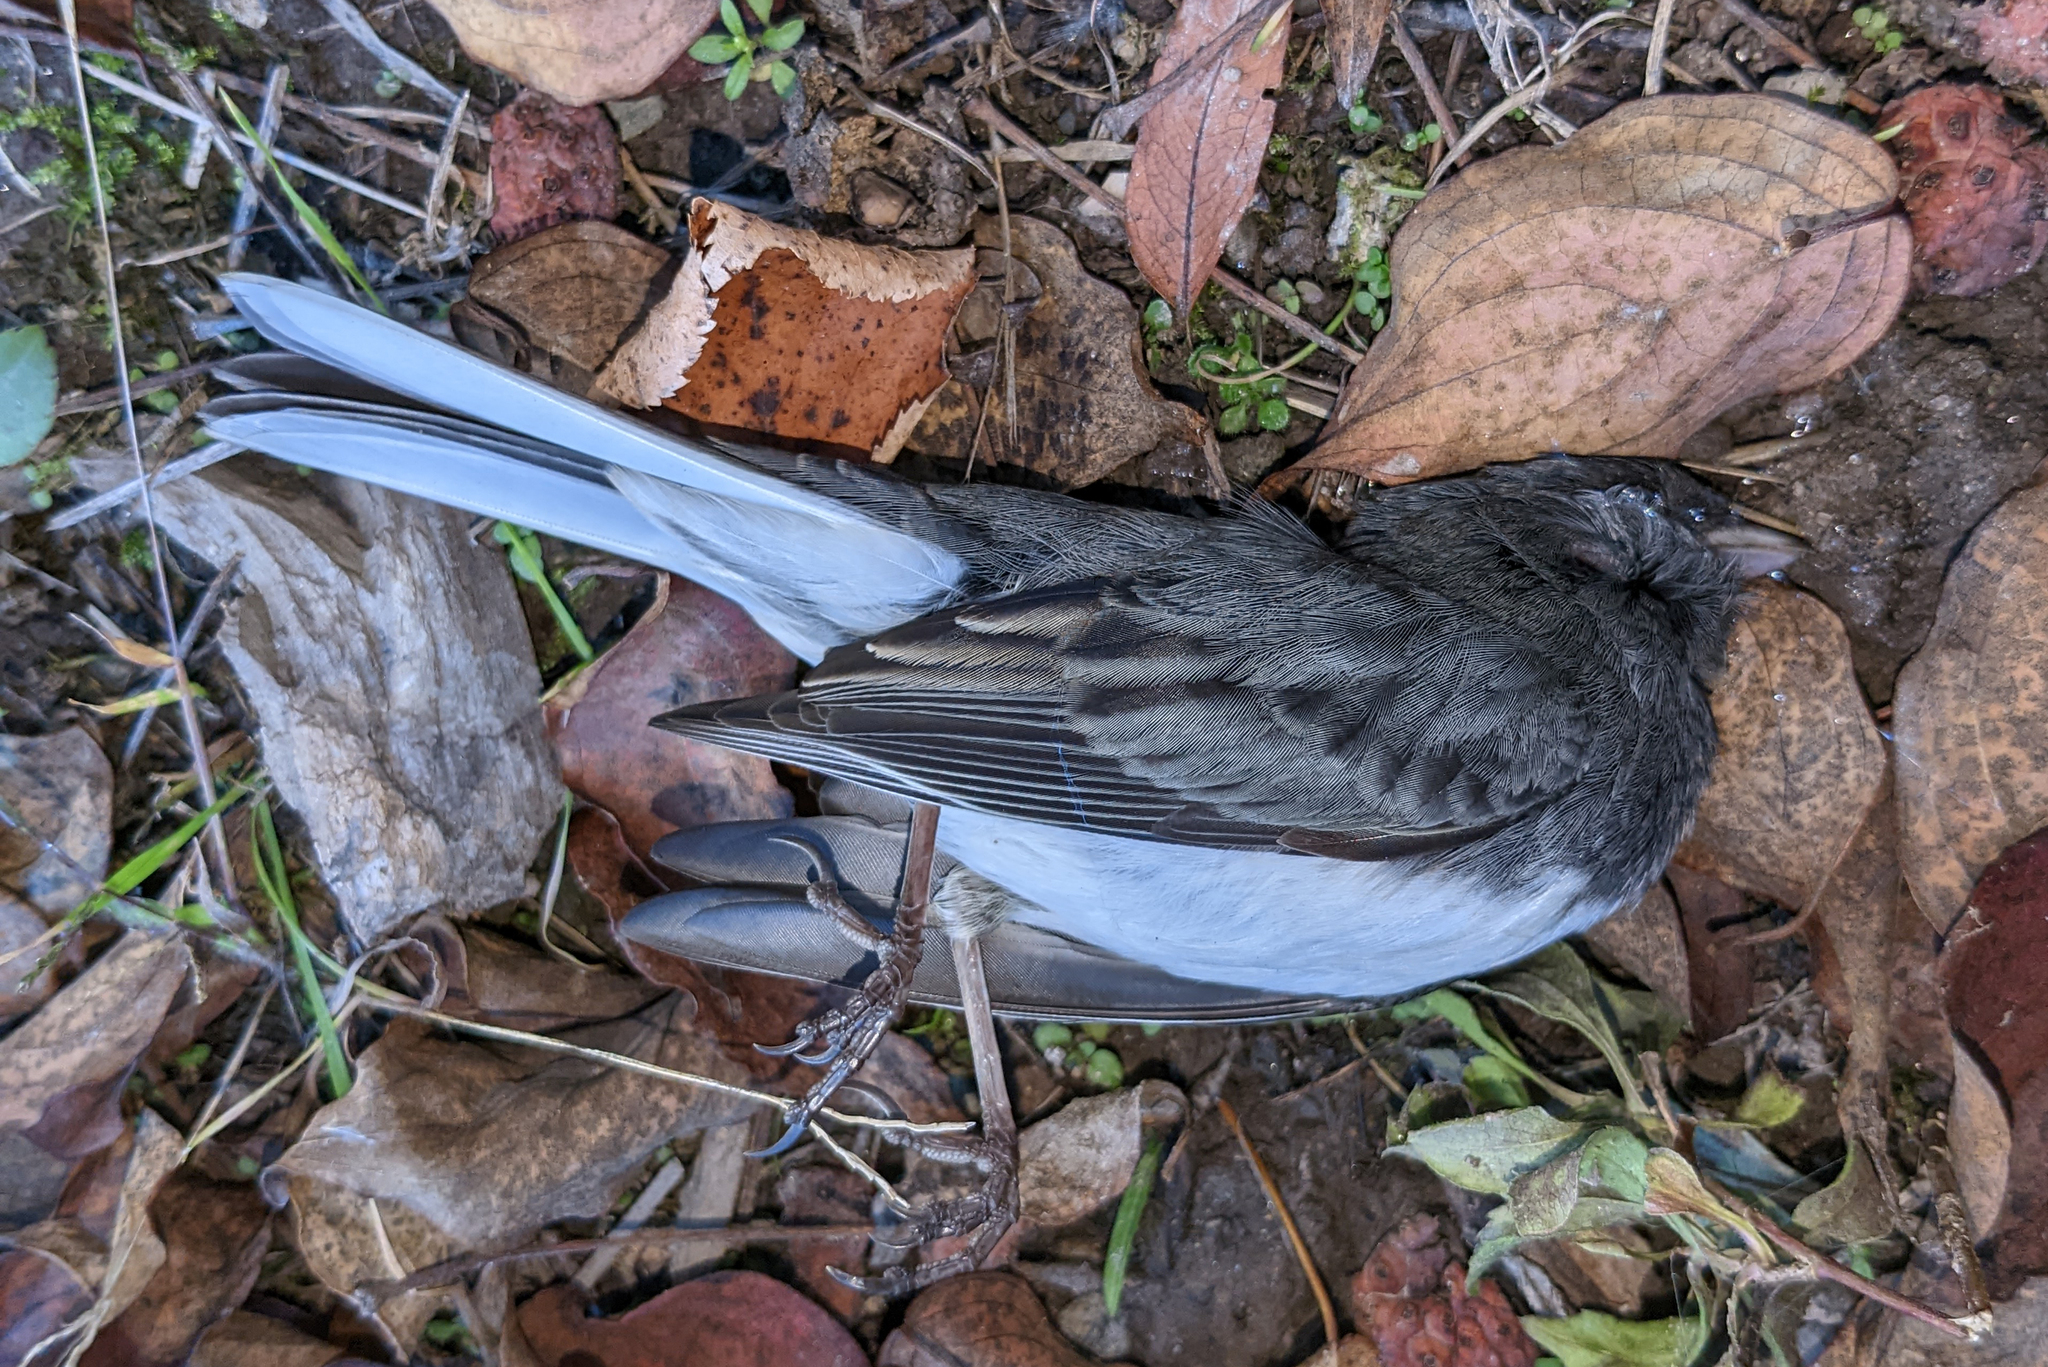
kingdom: Animalia
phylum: Chordata
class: Aves
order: Passeriformes
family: Passerellidae
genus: Junco
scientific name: Junco hyemalis
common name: Dark-eyed junco
